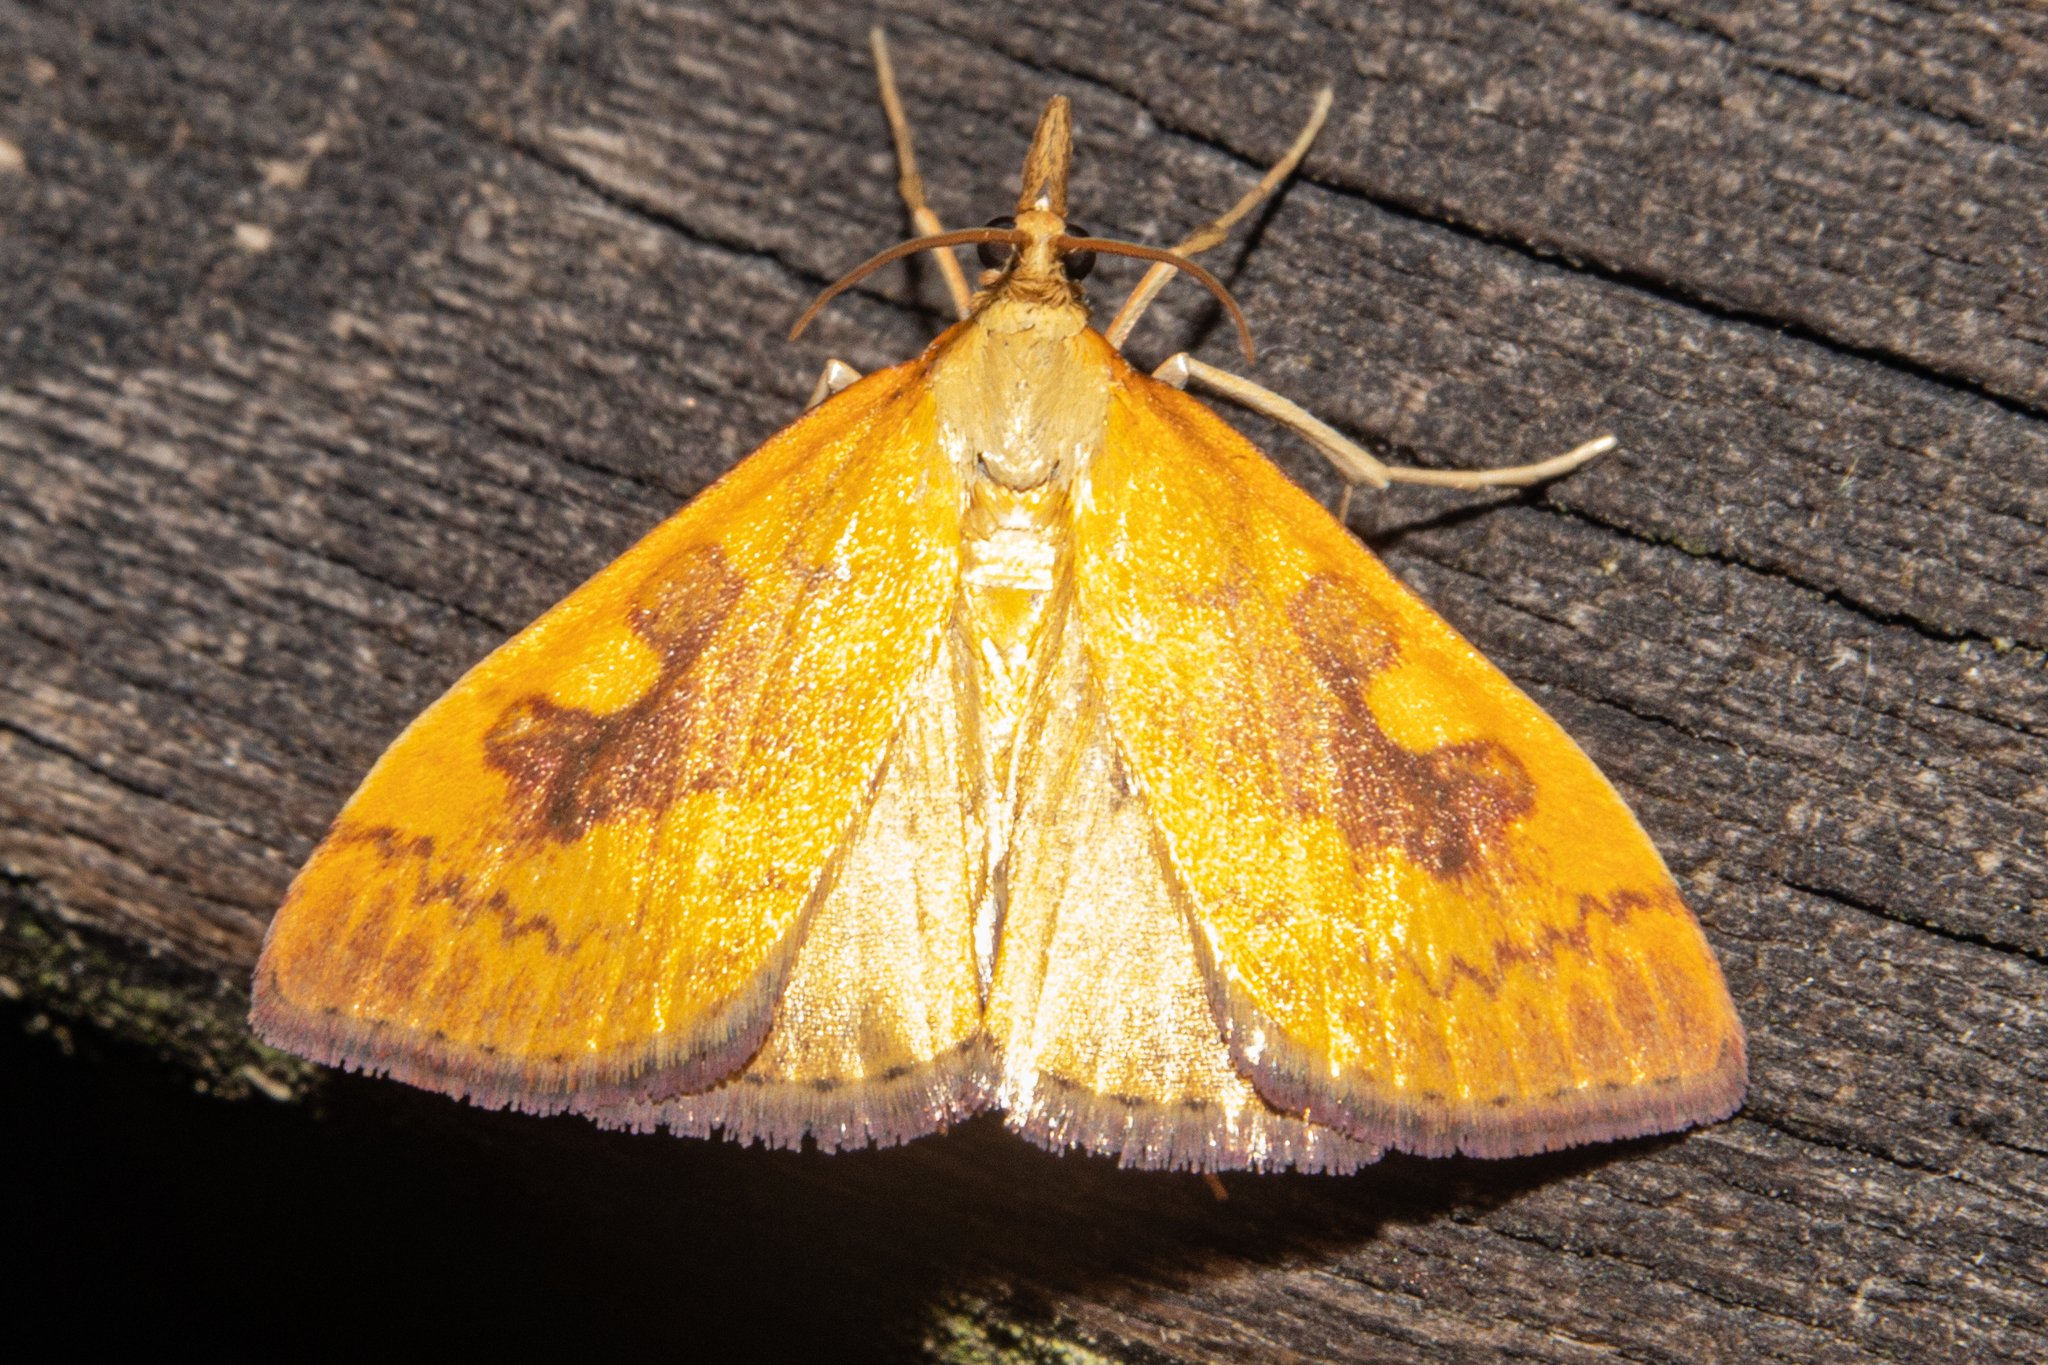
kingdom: Animalia
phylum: Arthropoda
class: Insecta
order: Lepidoptera
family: Crambidae
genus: Udea
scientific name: Udea Mnesictena flavidalis
